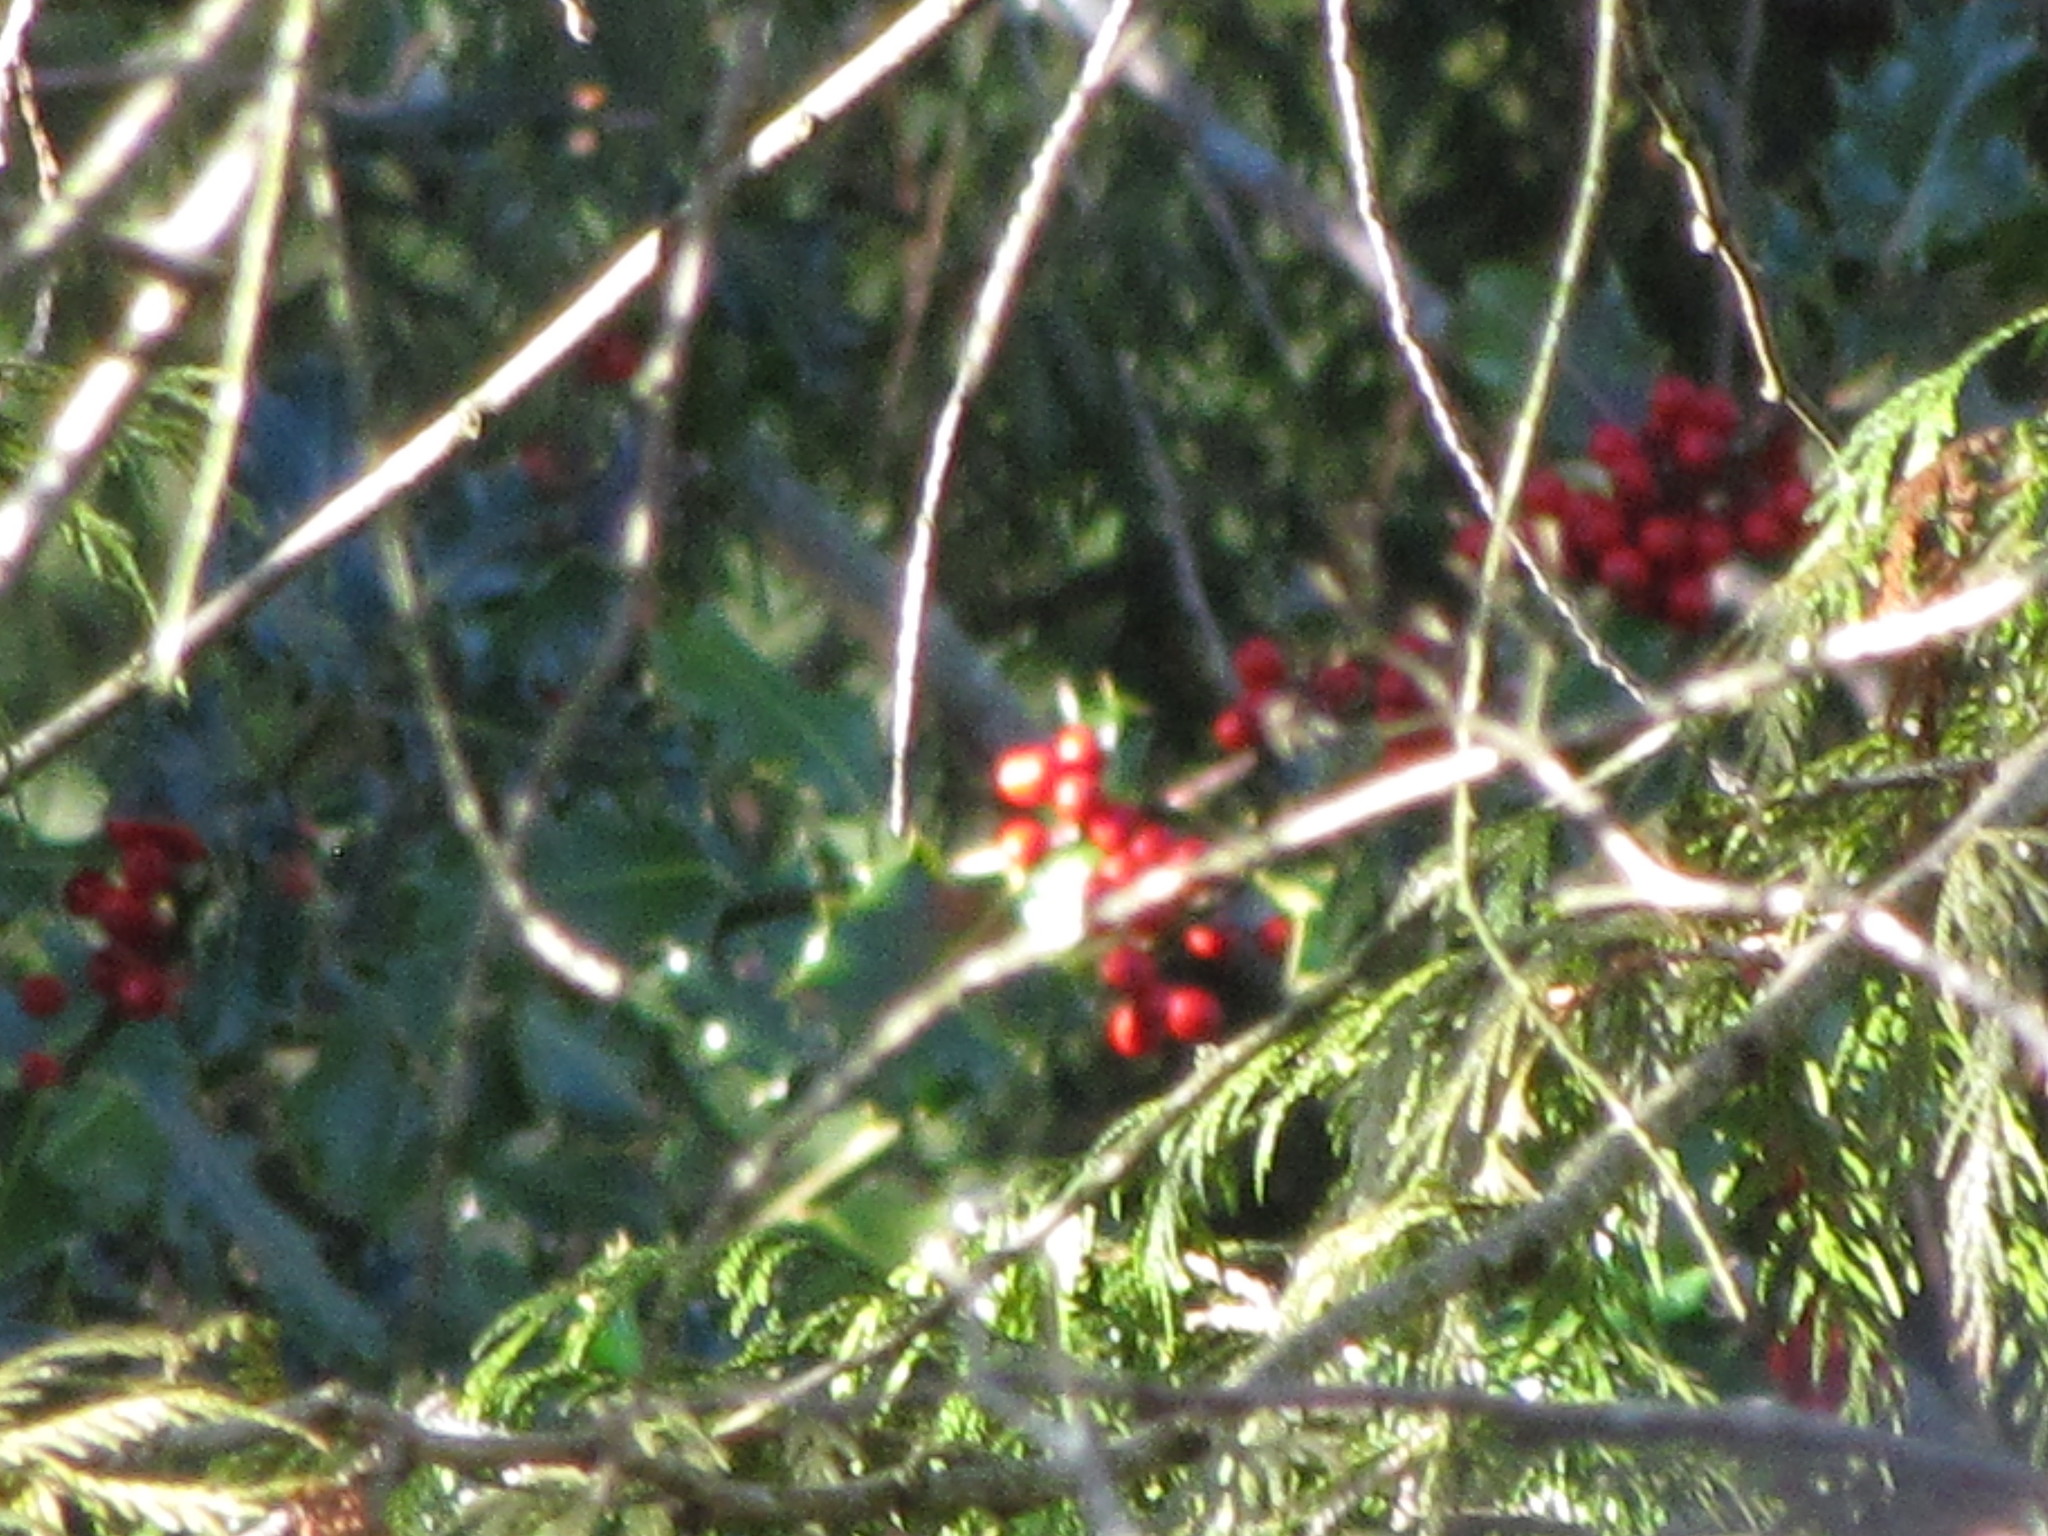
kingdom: Plantae
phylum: Tracheophyta
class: Magnoliopsida
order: Aquifoliales
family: Aquifoliaceae
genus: Ilex
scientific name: Ilex aquifolium
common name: English holly
